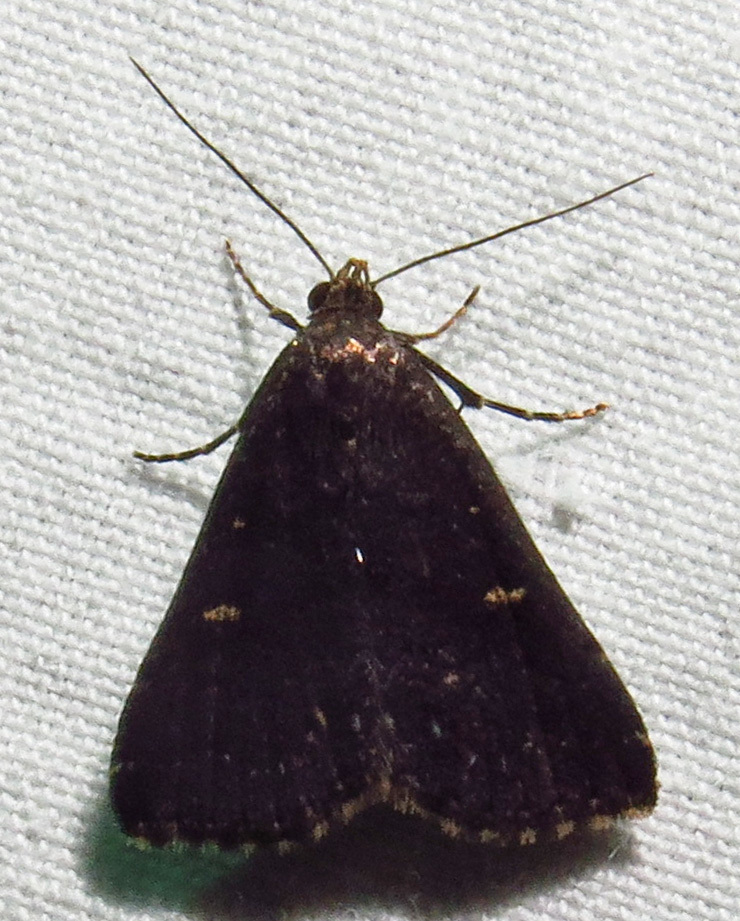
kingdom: Animalia
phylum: Arthropoda
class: Insecta
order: Lepidoptera
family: Erebidae
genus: Tetanolita
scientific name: Tetanolita mynesalis
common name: Smoky tetanolita moth
